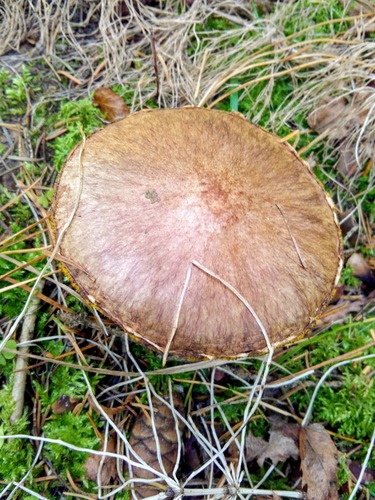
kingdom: Fungi
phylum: Basidiomycota
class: Agaricomycetes
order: Boletales
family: Suillaceae
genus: Suillus
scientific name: Suillus americanus
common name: Chicken fat mushroom
